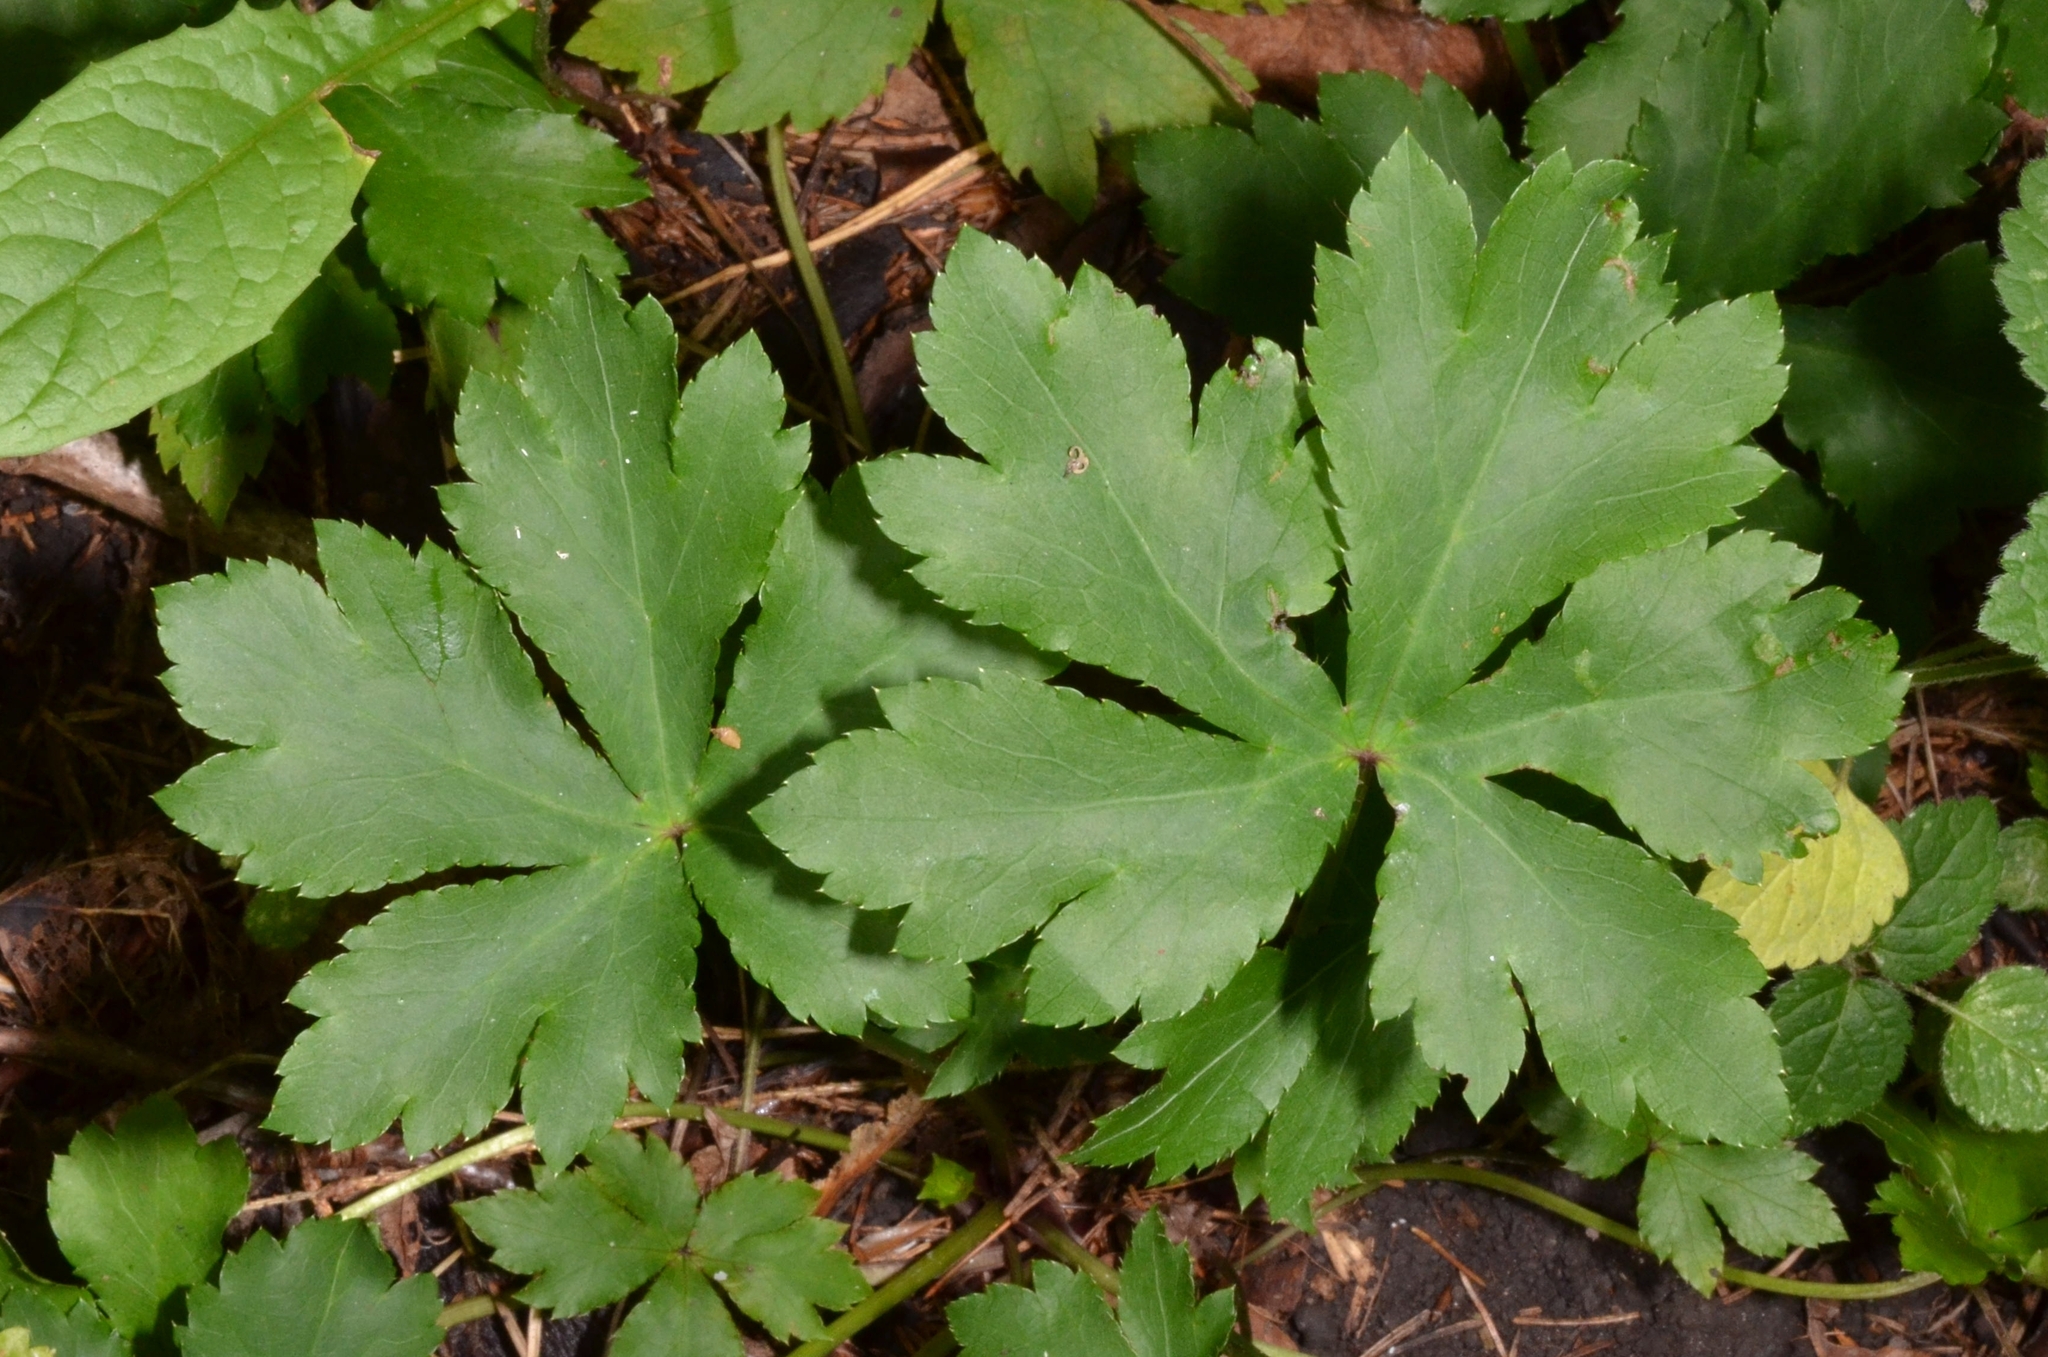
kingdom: Plantae
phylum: Tracheophyta
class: Magnoliopsida
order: Apiales
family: Apiaceae
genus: Sanicula
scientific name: Sanicula europaea
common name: Sanicle
